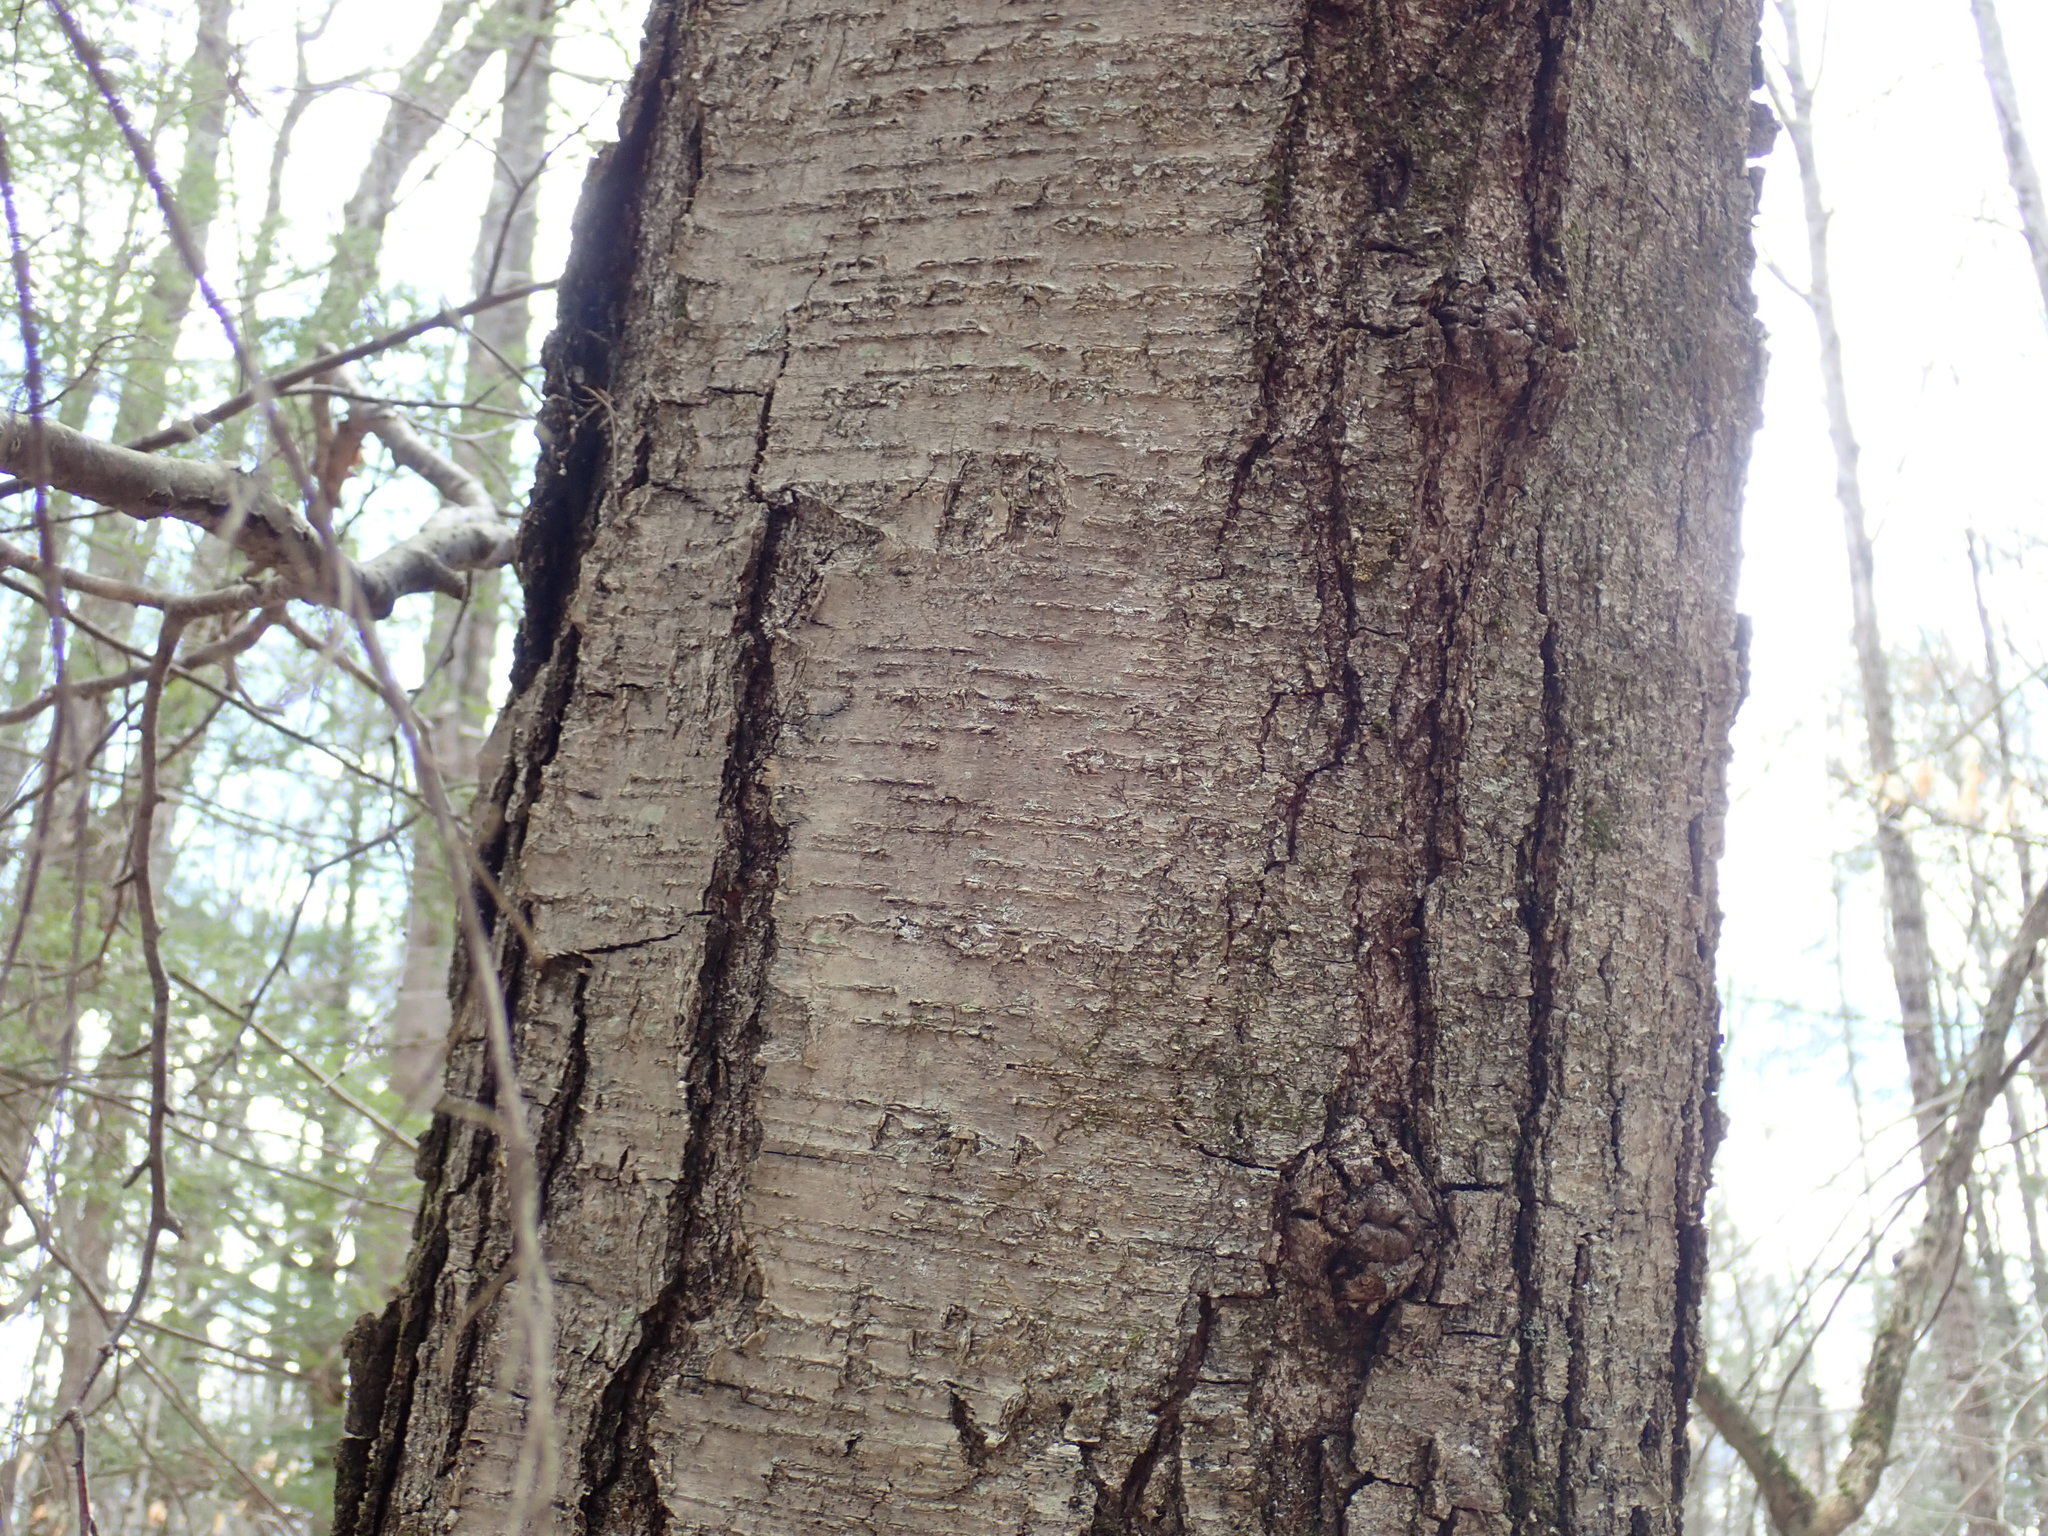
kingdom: Plantae
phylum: Tracheophyta
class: Magnoliopsida
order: Fagales
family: Betulaceae
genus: Betula
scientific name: Betula lenta
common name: Black birch
